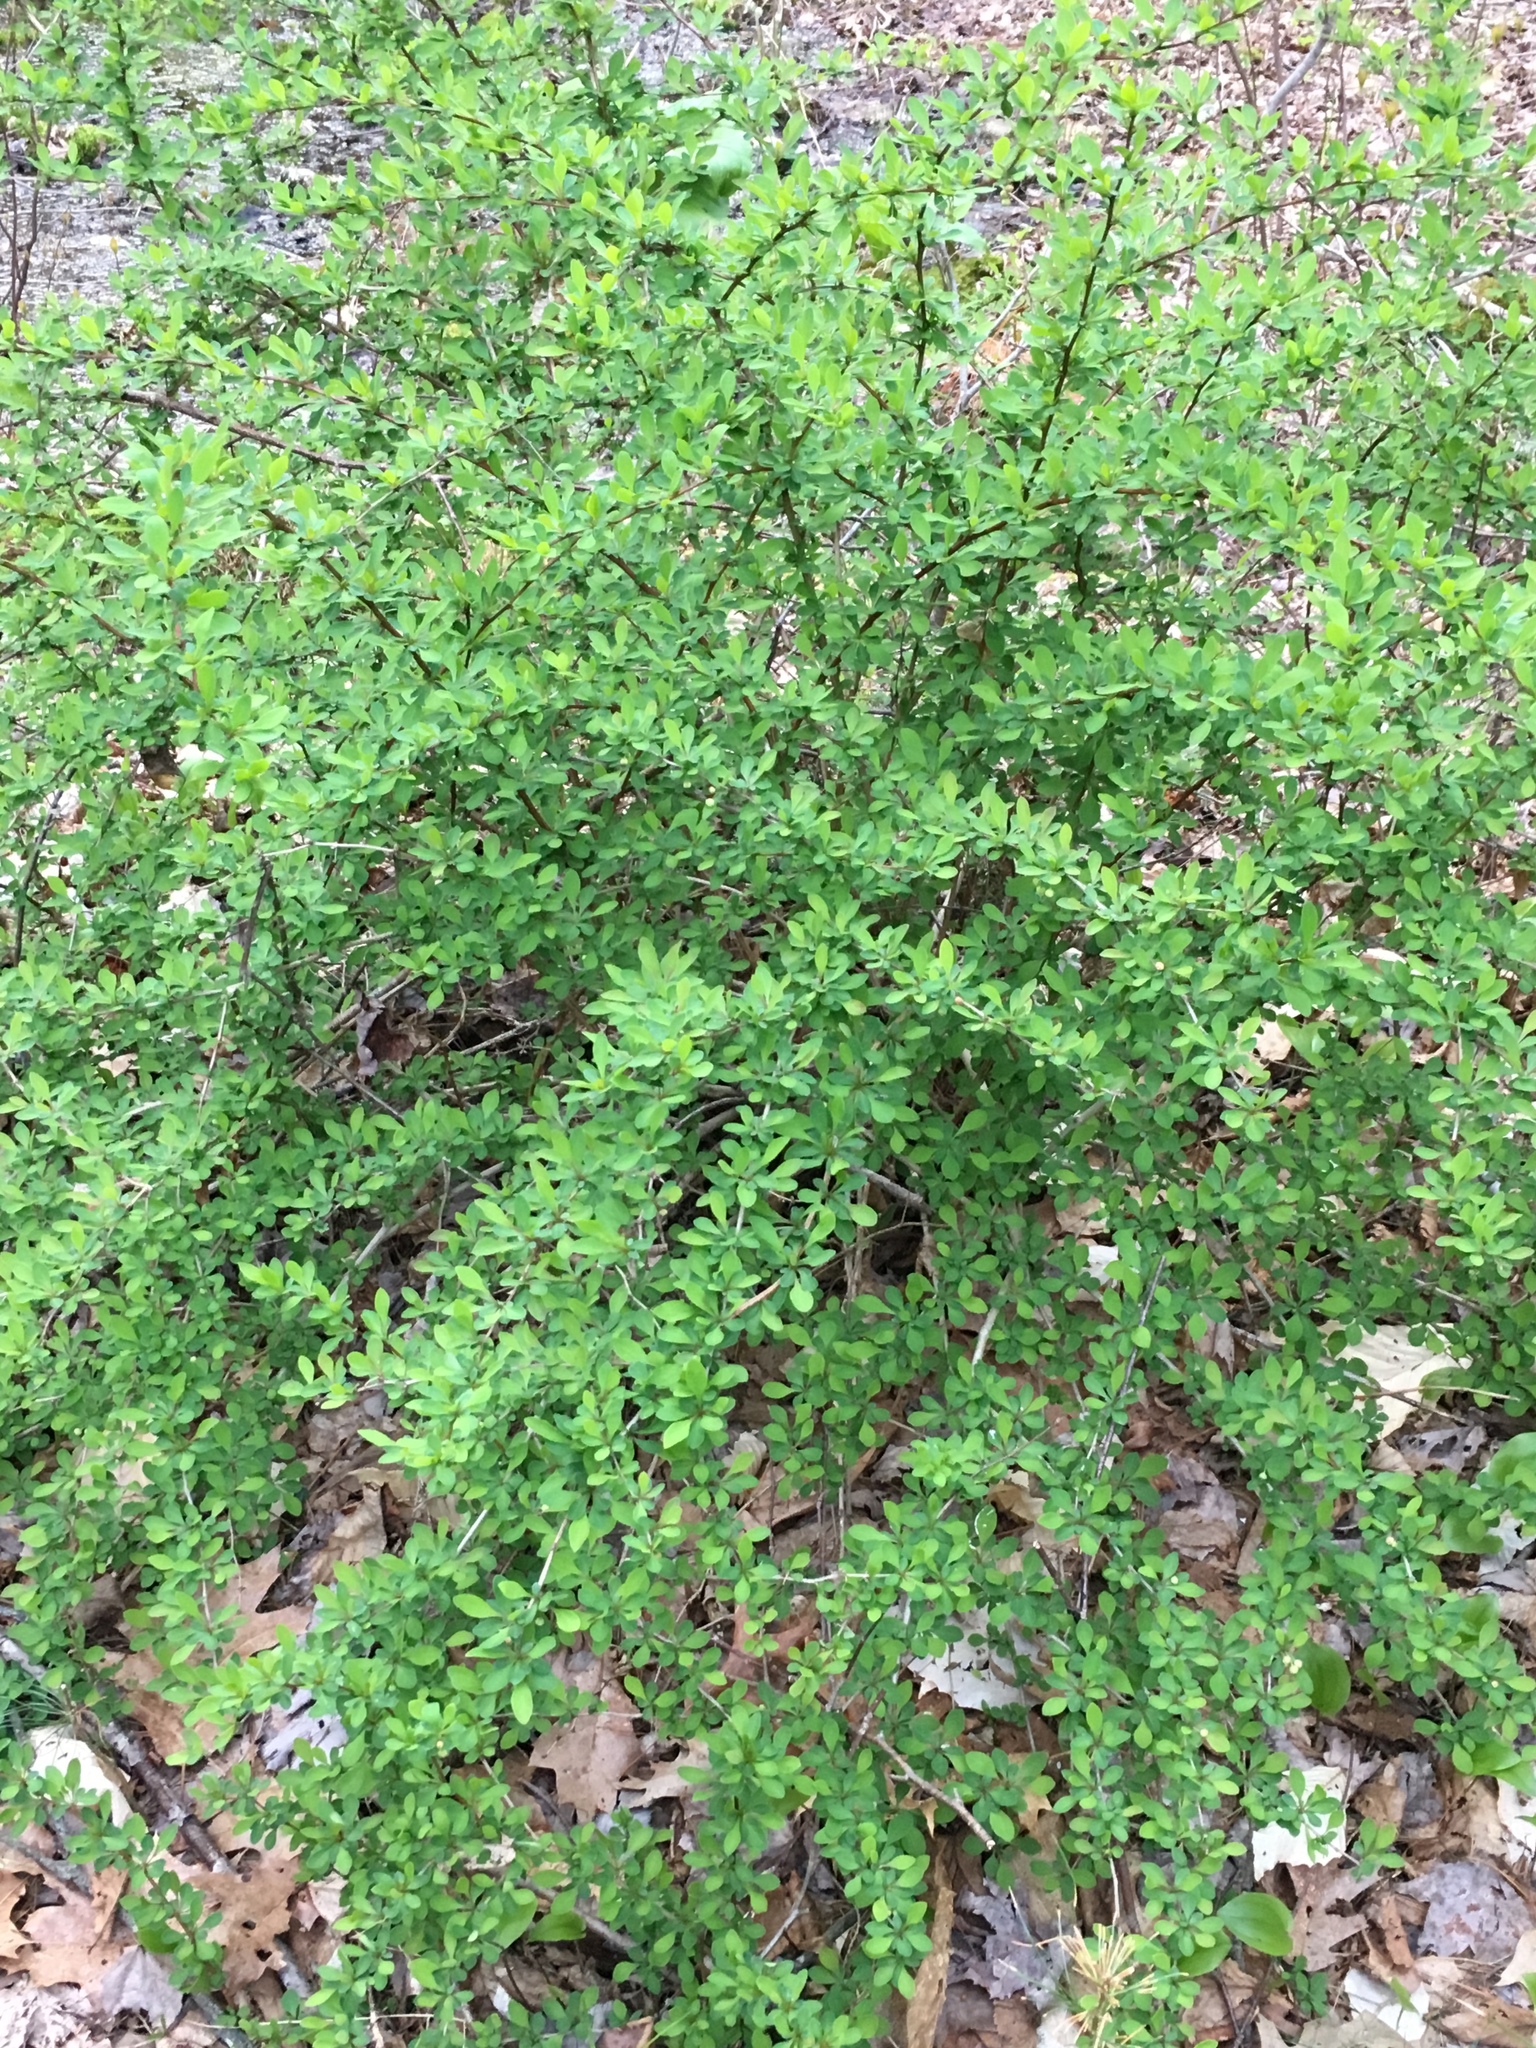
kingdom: Plantae
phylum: Tracheophyta
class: Magnoliopsida
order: Ranunculales
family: Berberidaceae
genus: Berberis
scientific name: Berberis thunbergii
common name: Japanese barberry
